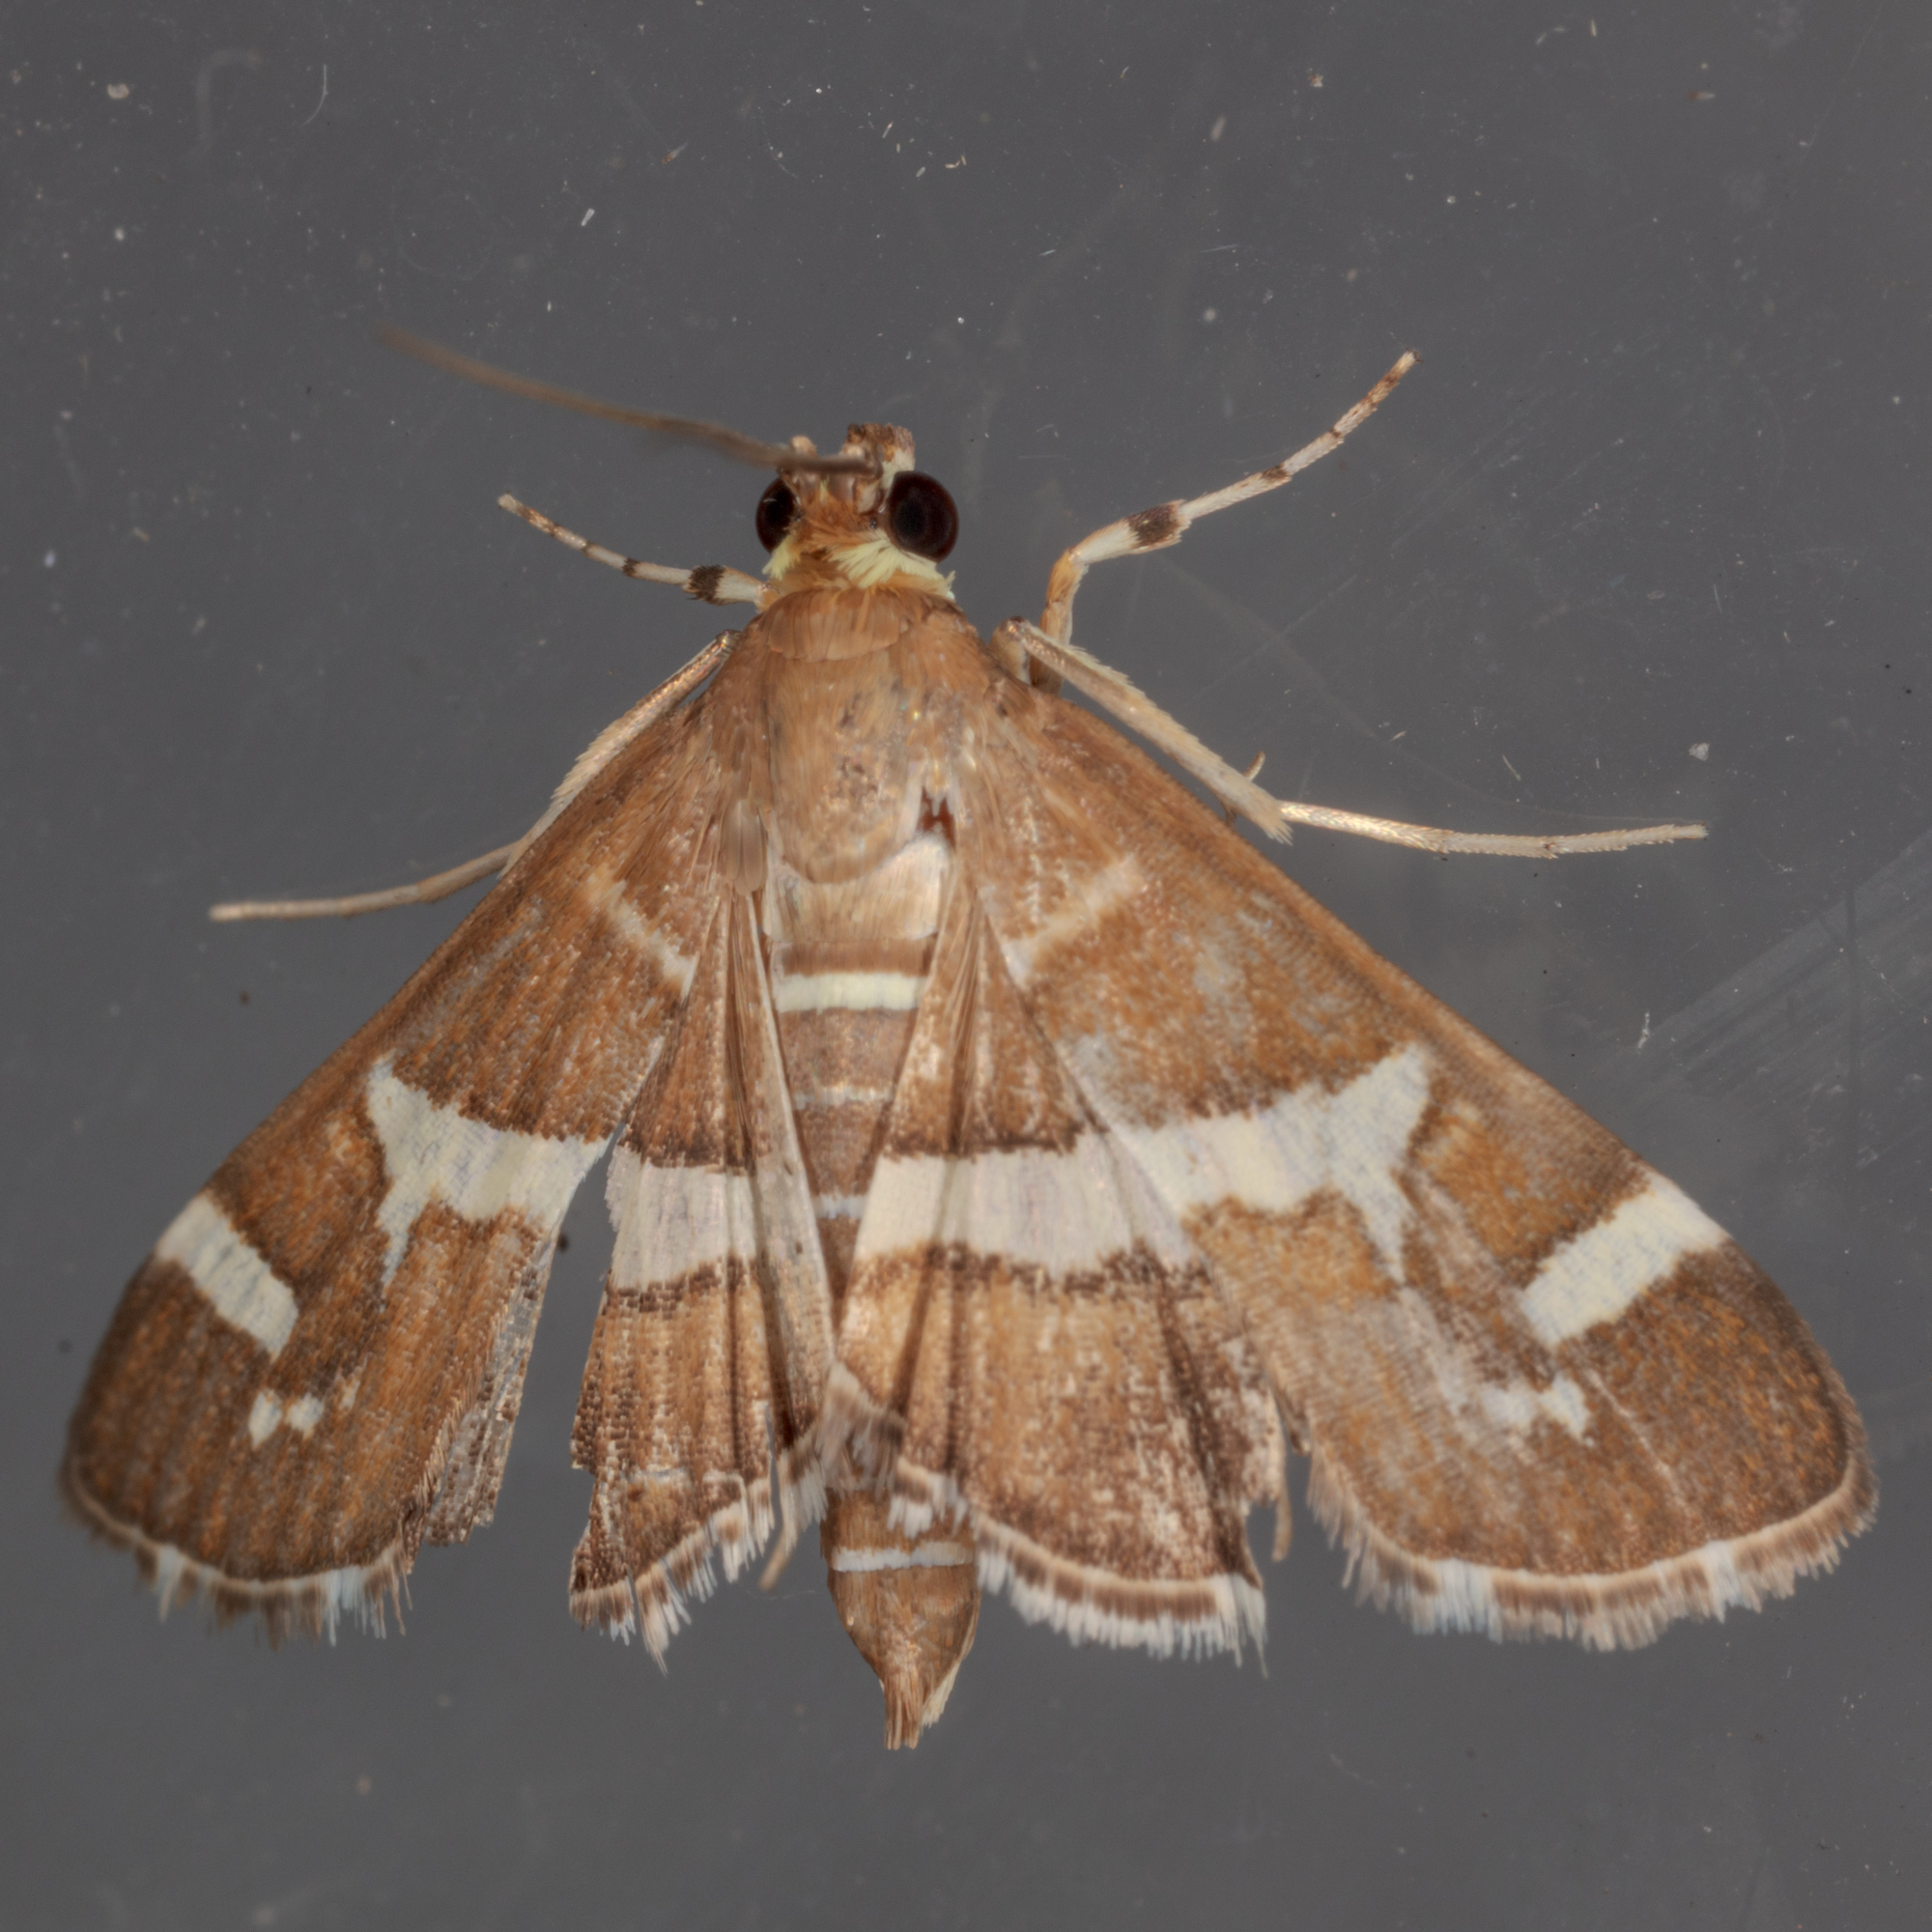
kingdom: Animalia
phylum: Arthropoda
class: Insecta
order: Lepidoptera
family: Crambidae
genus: Spoladea
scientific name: Spoladea recurvalis
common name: Beet webworm moth
